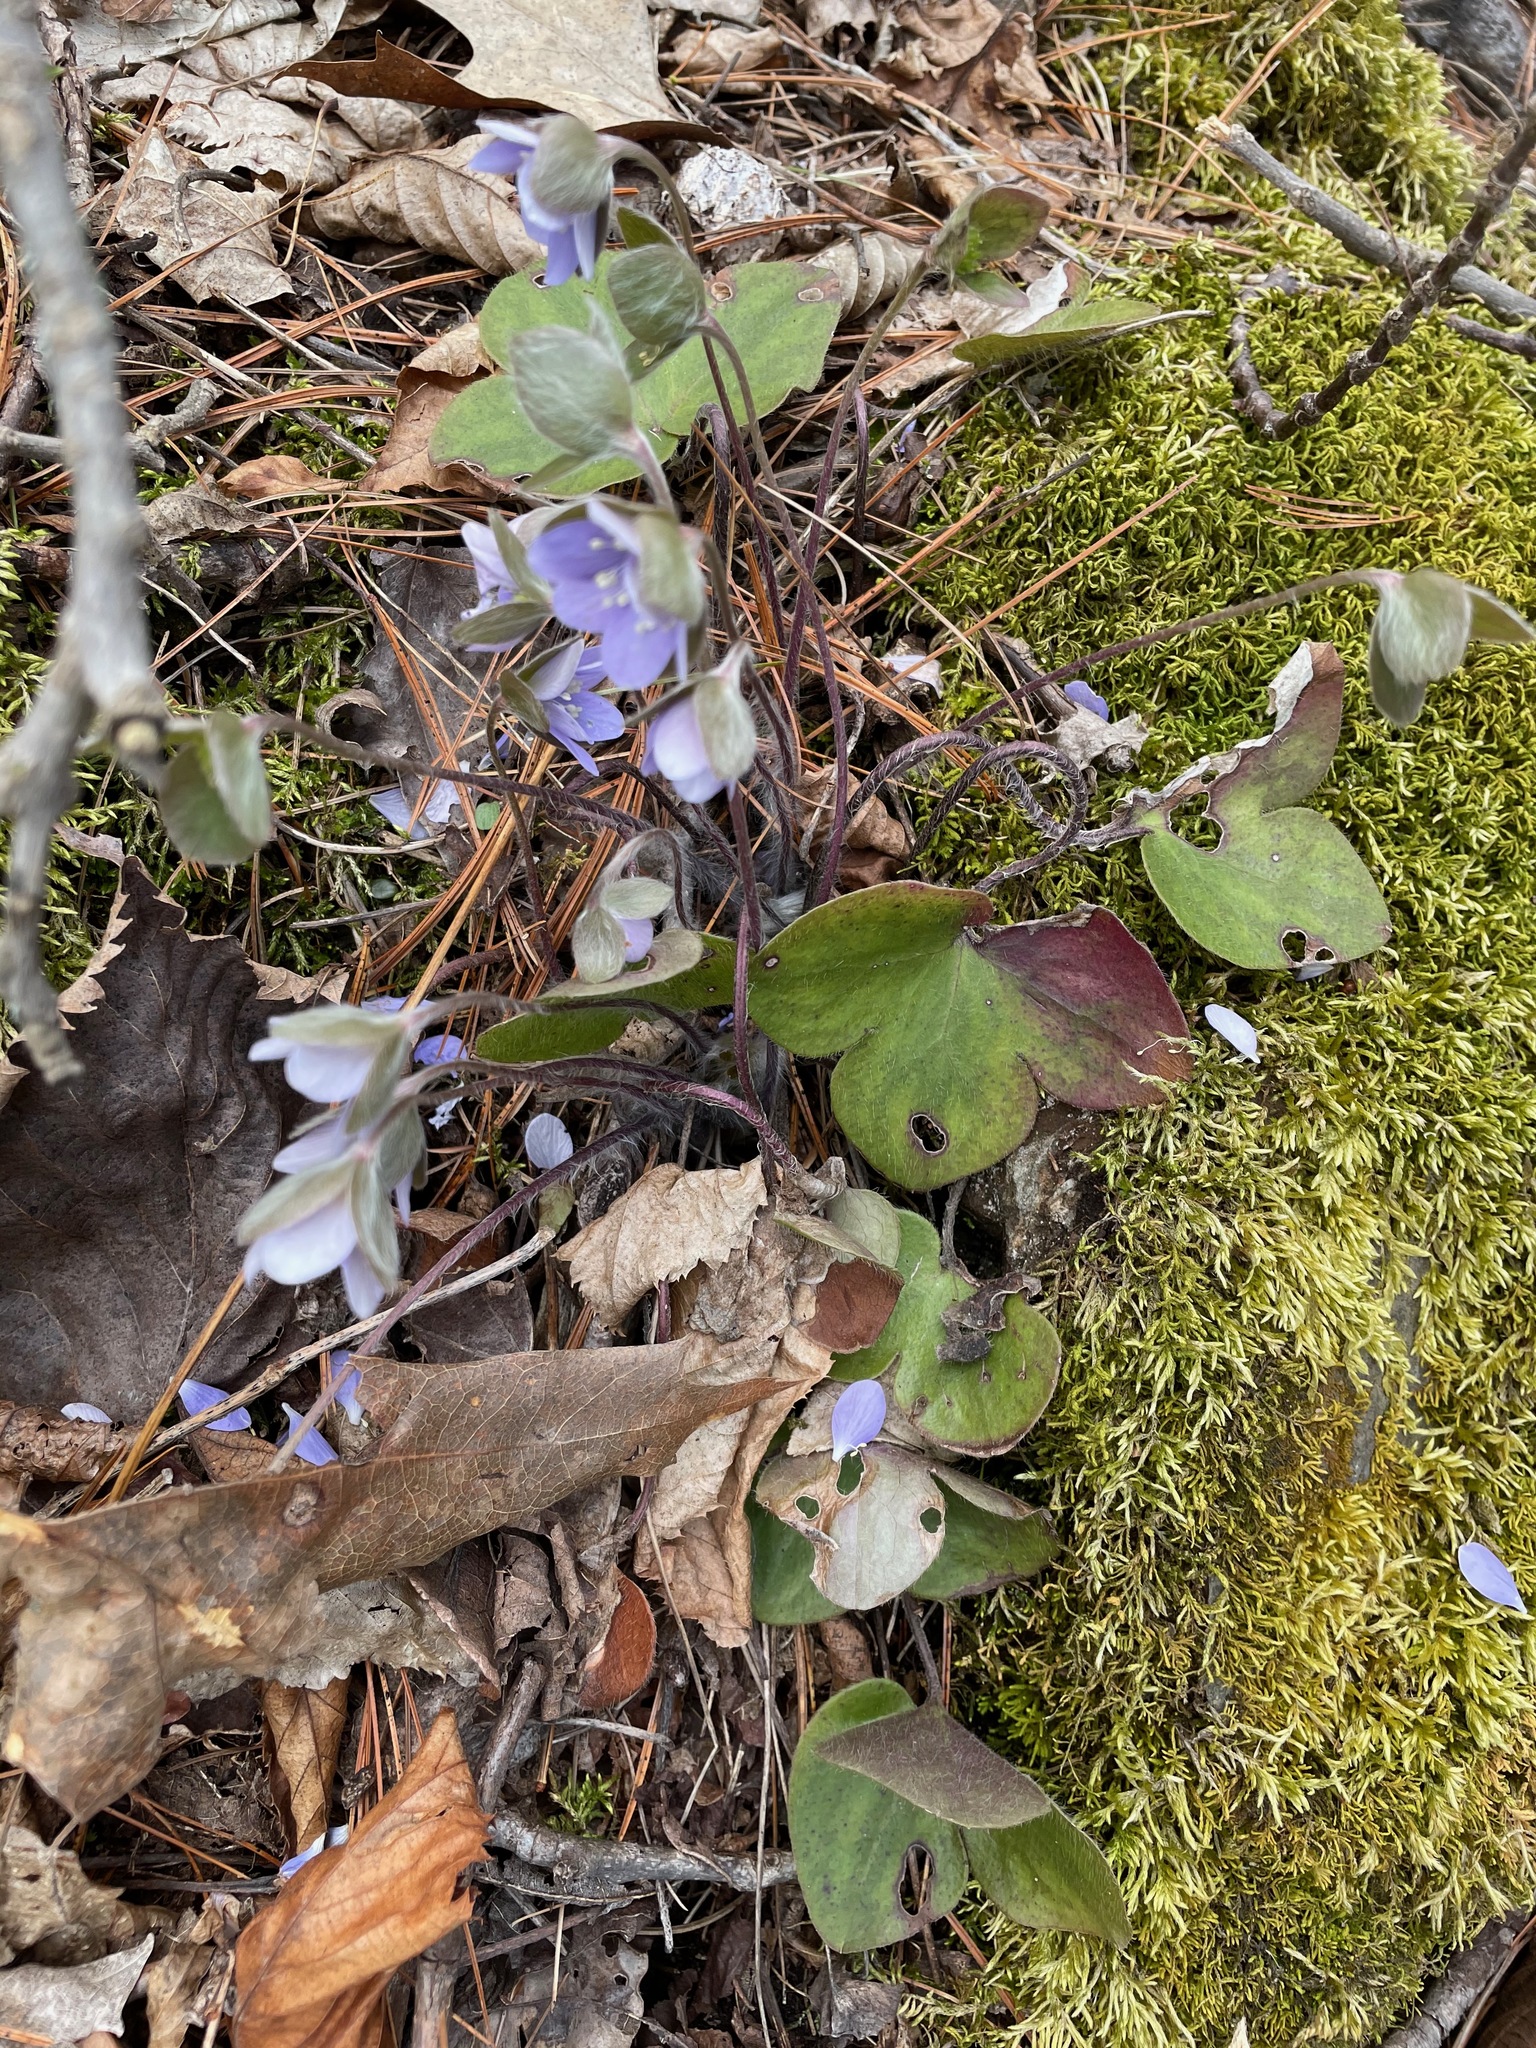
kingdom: Plantae
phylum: Tracheophyta
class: Magnoliopsida
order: Ranunculales
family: Ranunculaceae
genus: Hepatica
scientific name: Hepatica americana
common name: American hepatica
